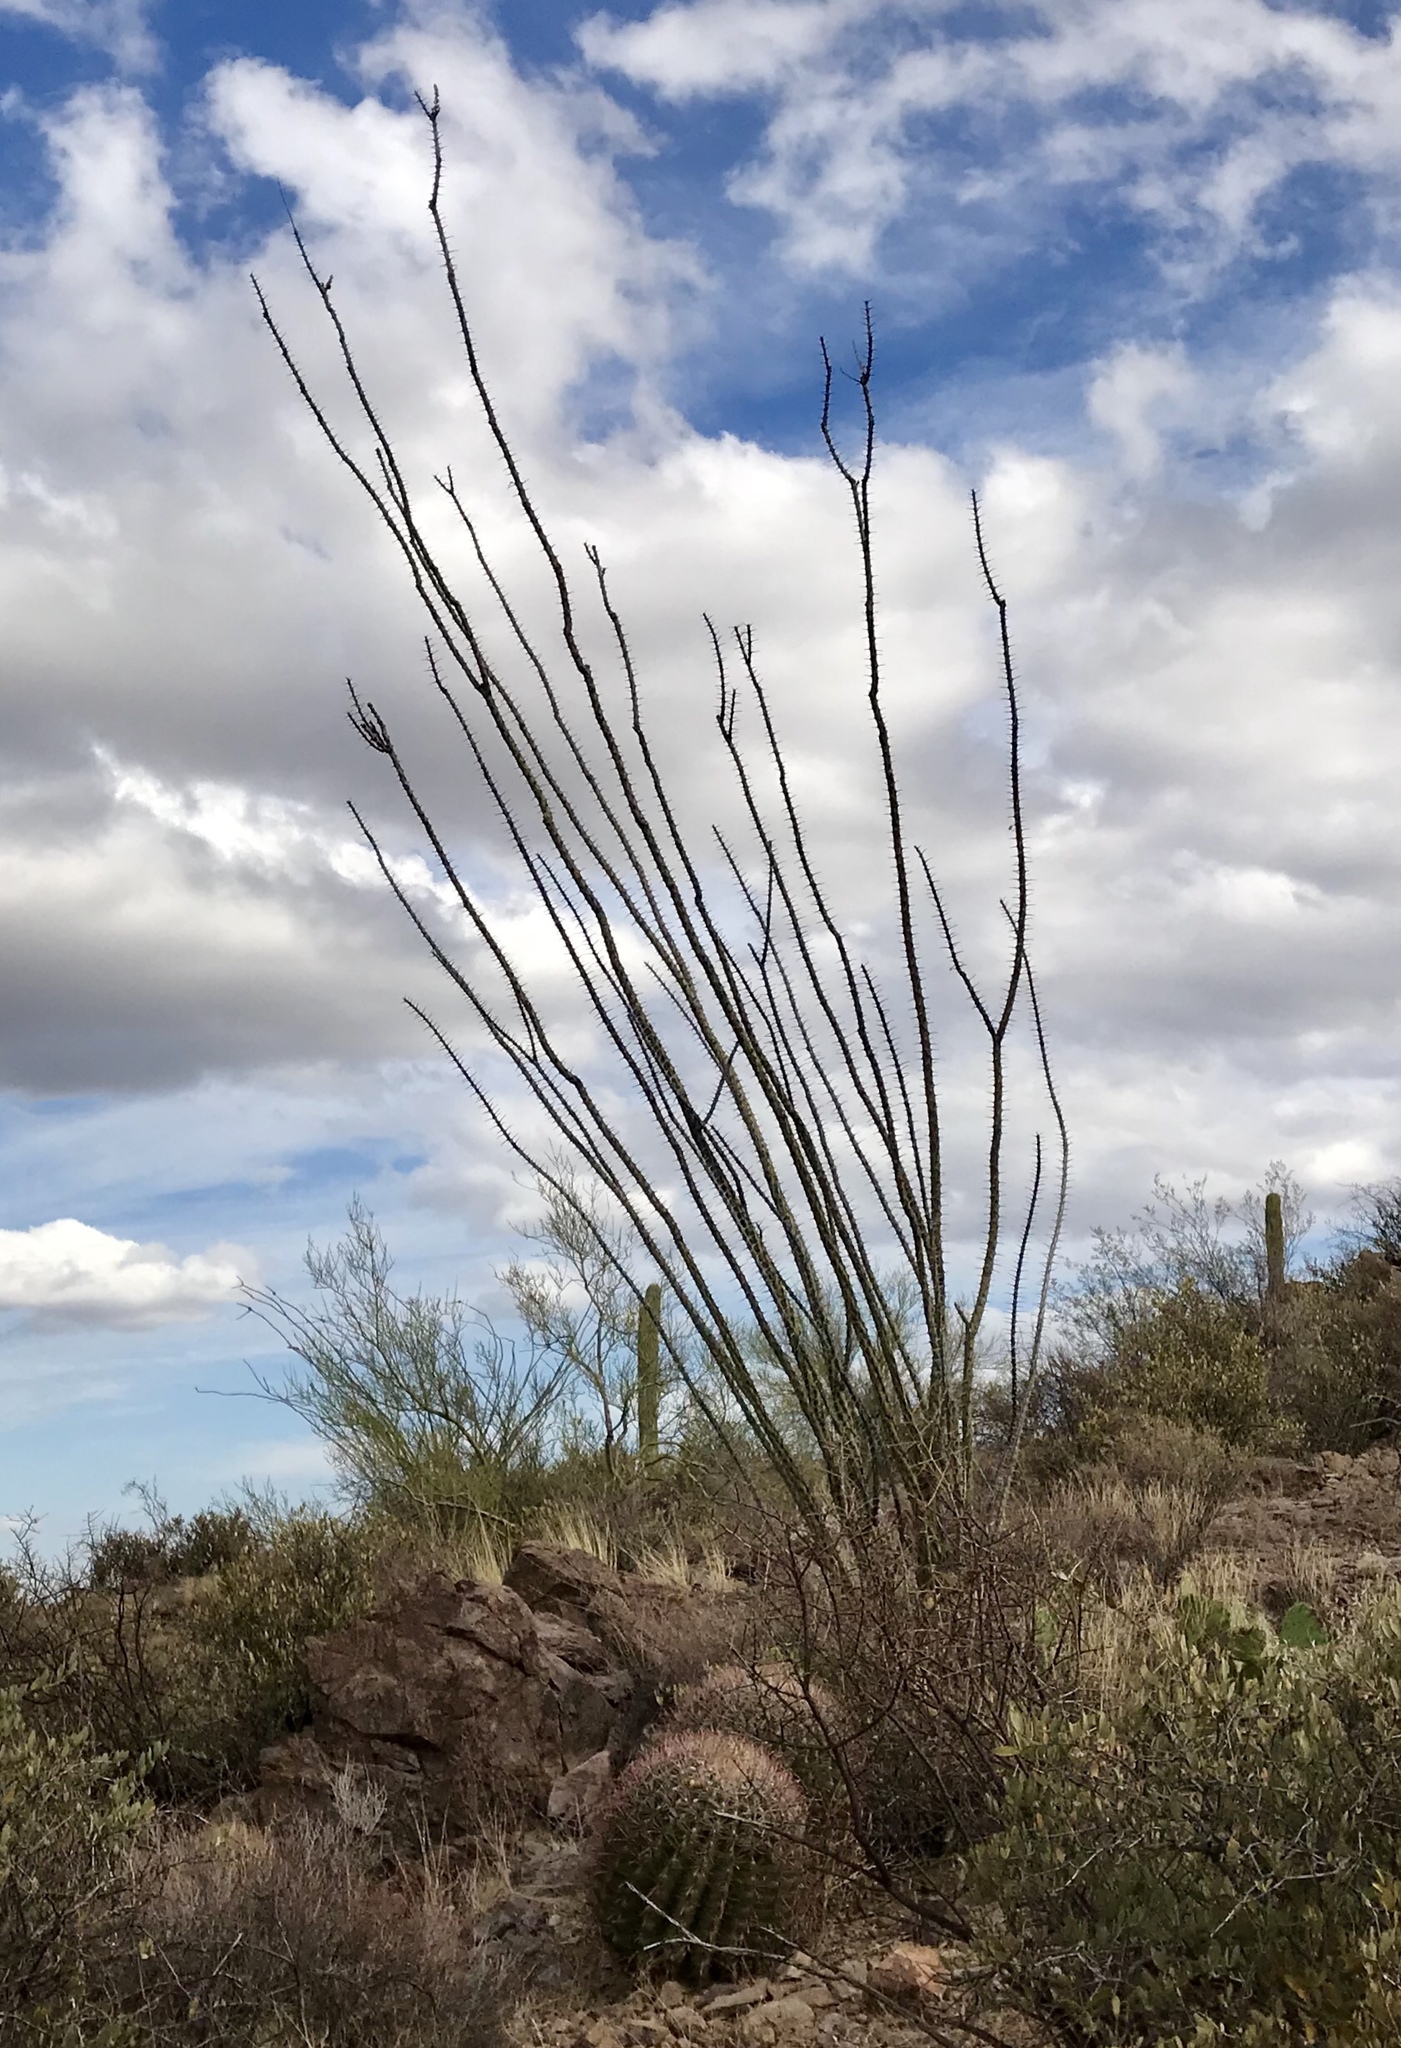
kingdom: Plantae
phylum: Tracheophyta
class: Magnoliopsida
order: Ericales
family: Fouquieriaceae
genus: Fouquieria
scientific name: Fouquieria splendens
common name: Vine-cactus
